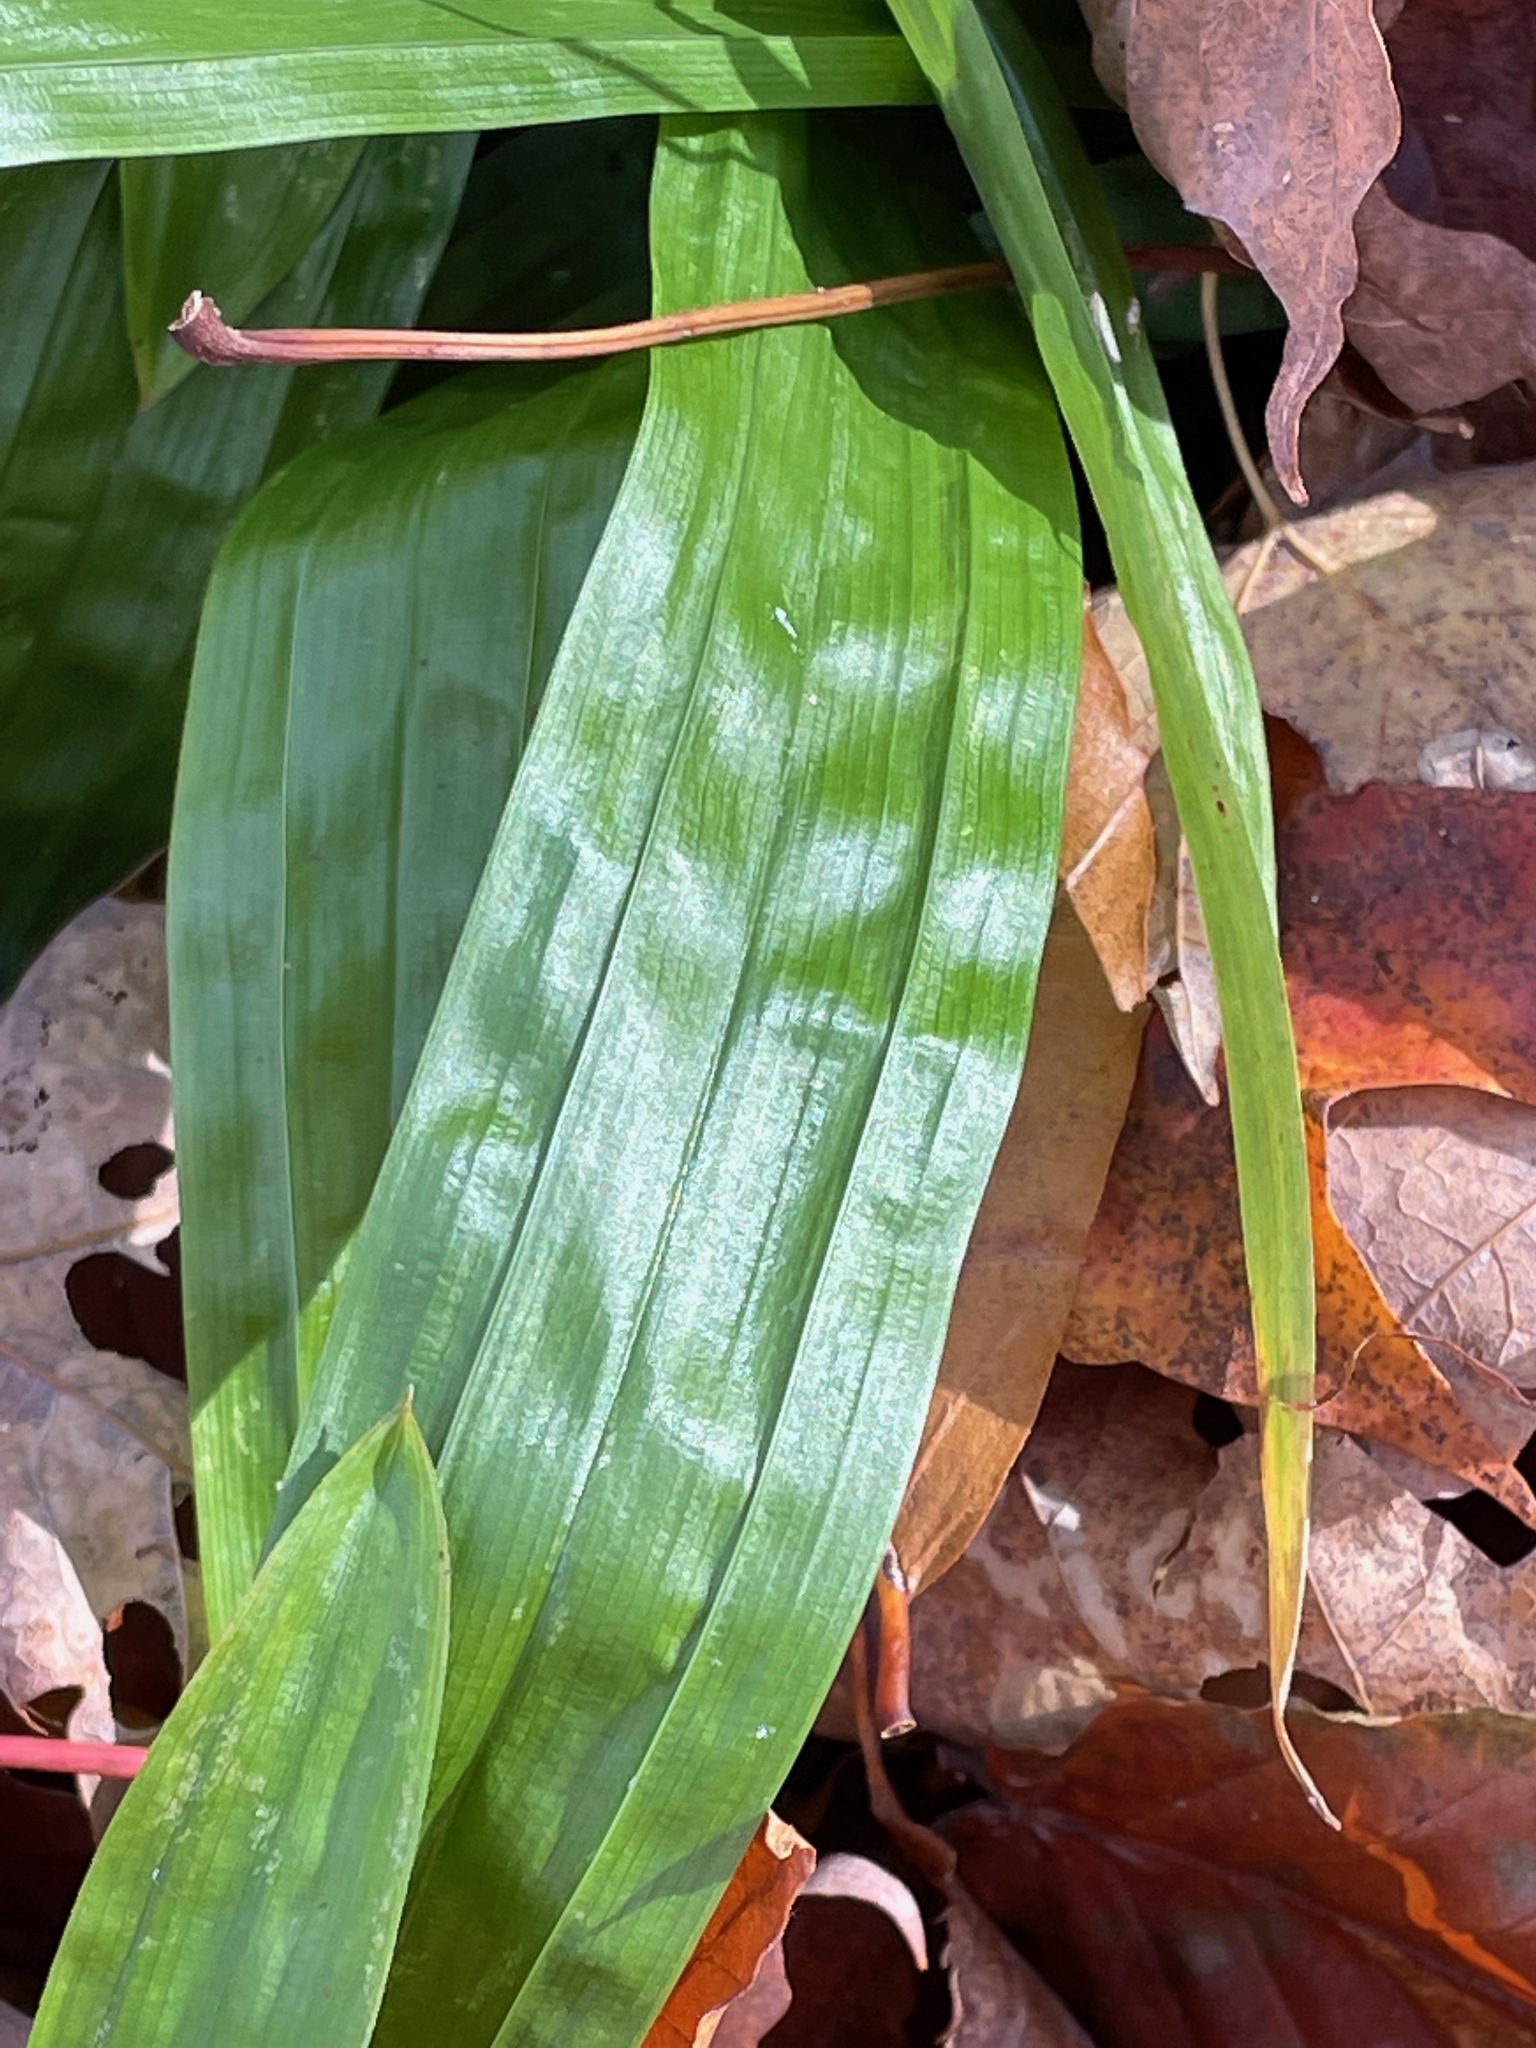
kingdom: Plantae
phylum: Tracheophyta
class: Liliopsida
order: Poales
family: Cyperaceae
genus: Carex
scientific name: Carex plantaginea
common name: Plantain-leaved sedge
